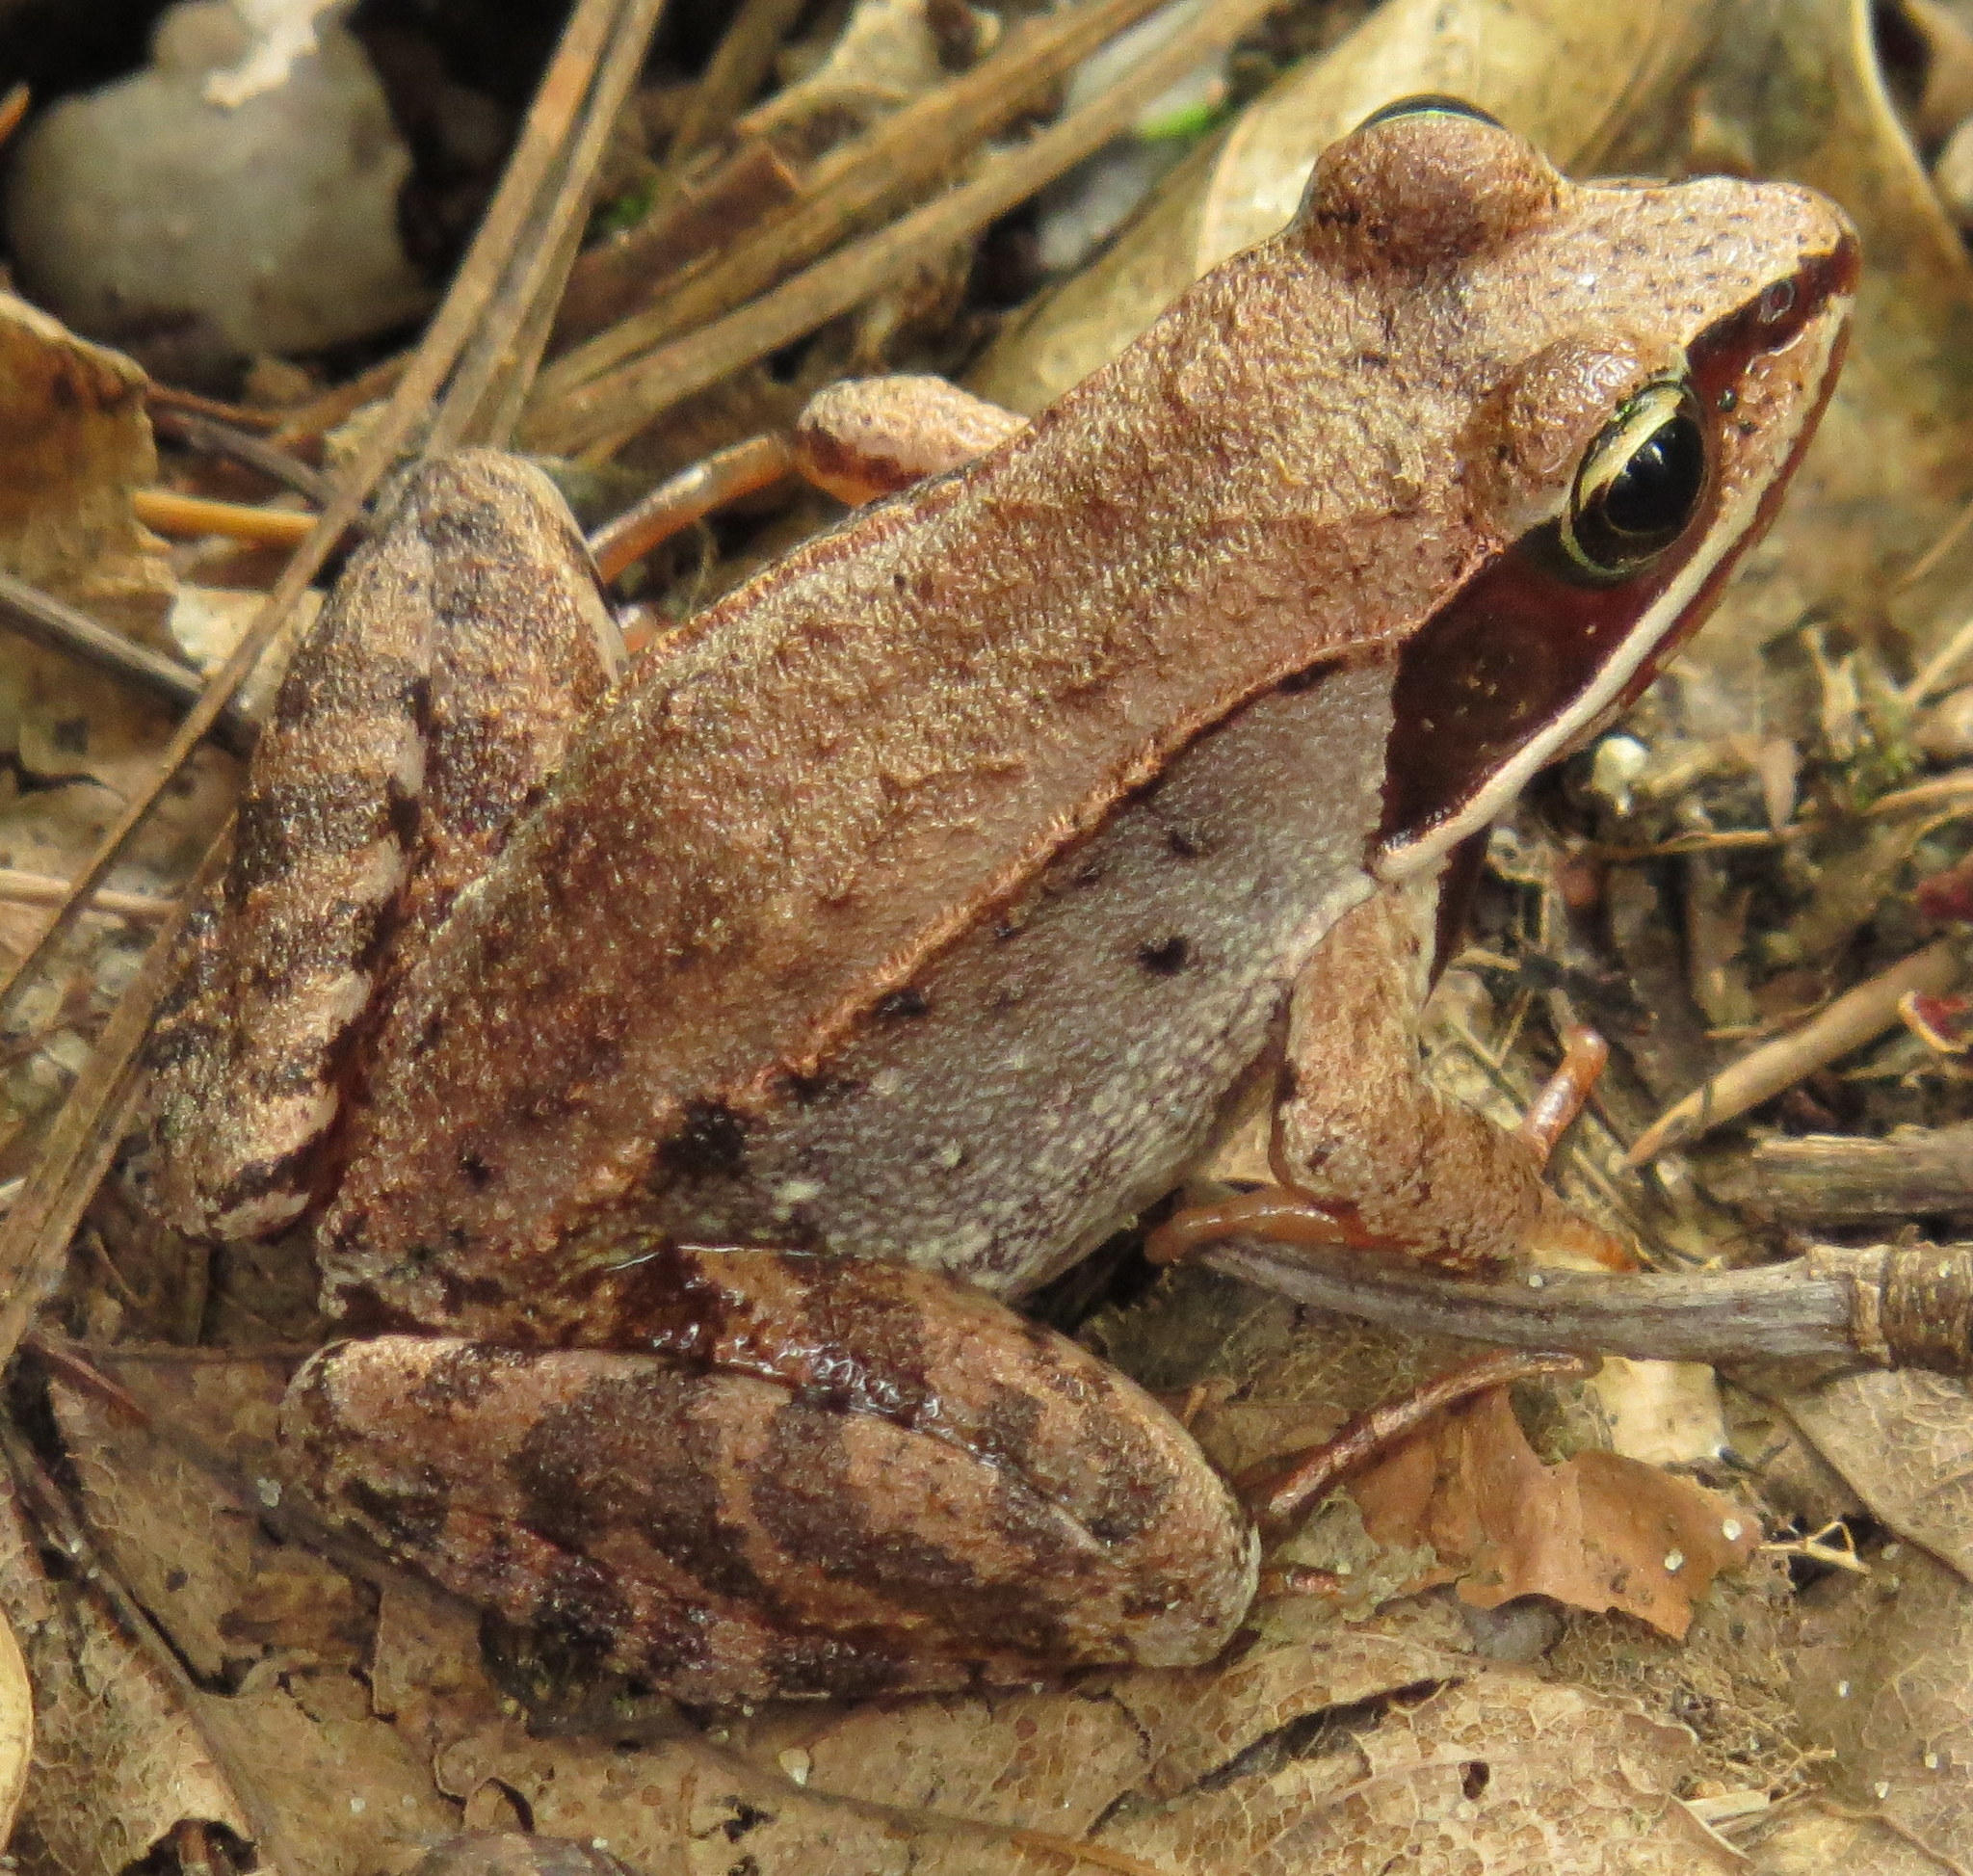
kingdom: Animalia
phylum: Chordata
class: Amphibia
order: Anura
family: Ranidae
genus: Lithobates
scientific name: Lithobates sylvaticus
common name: Wood frog
